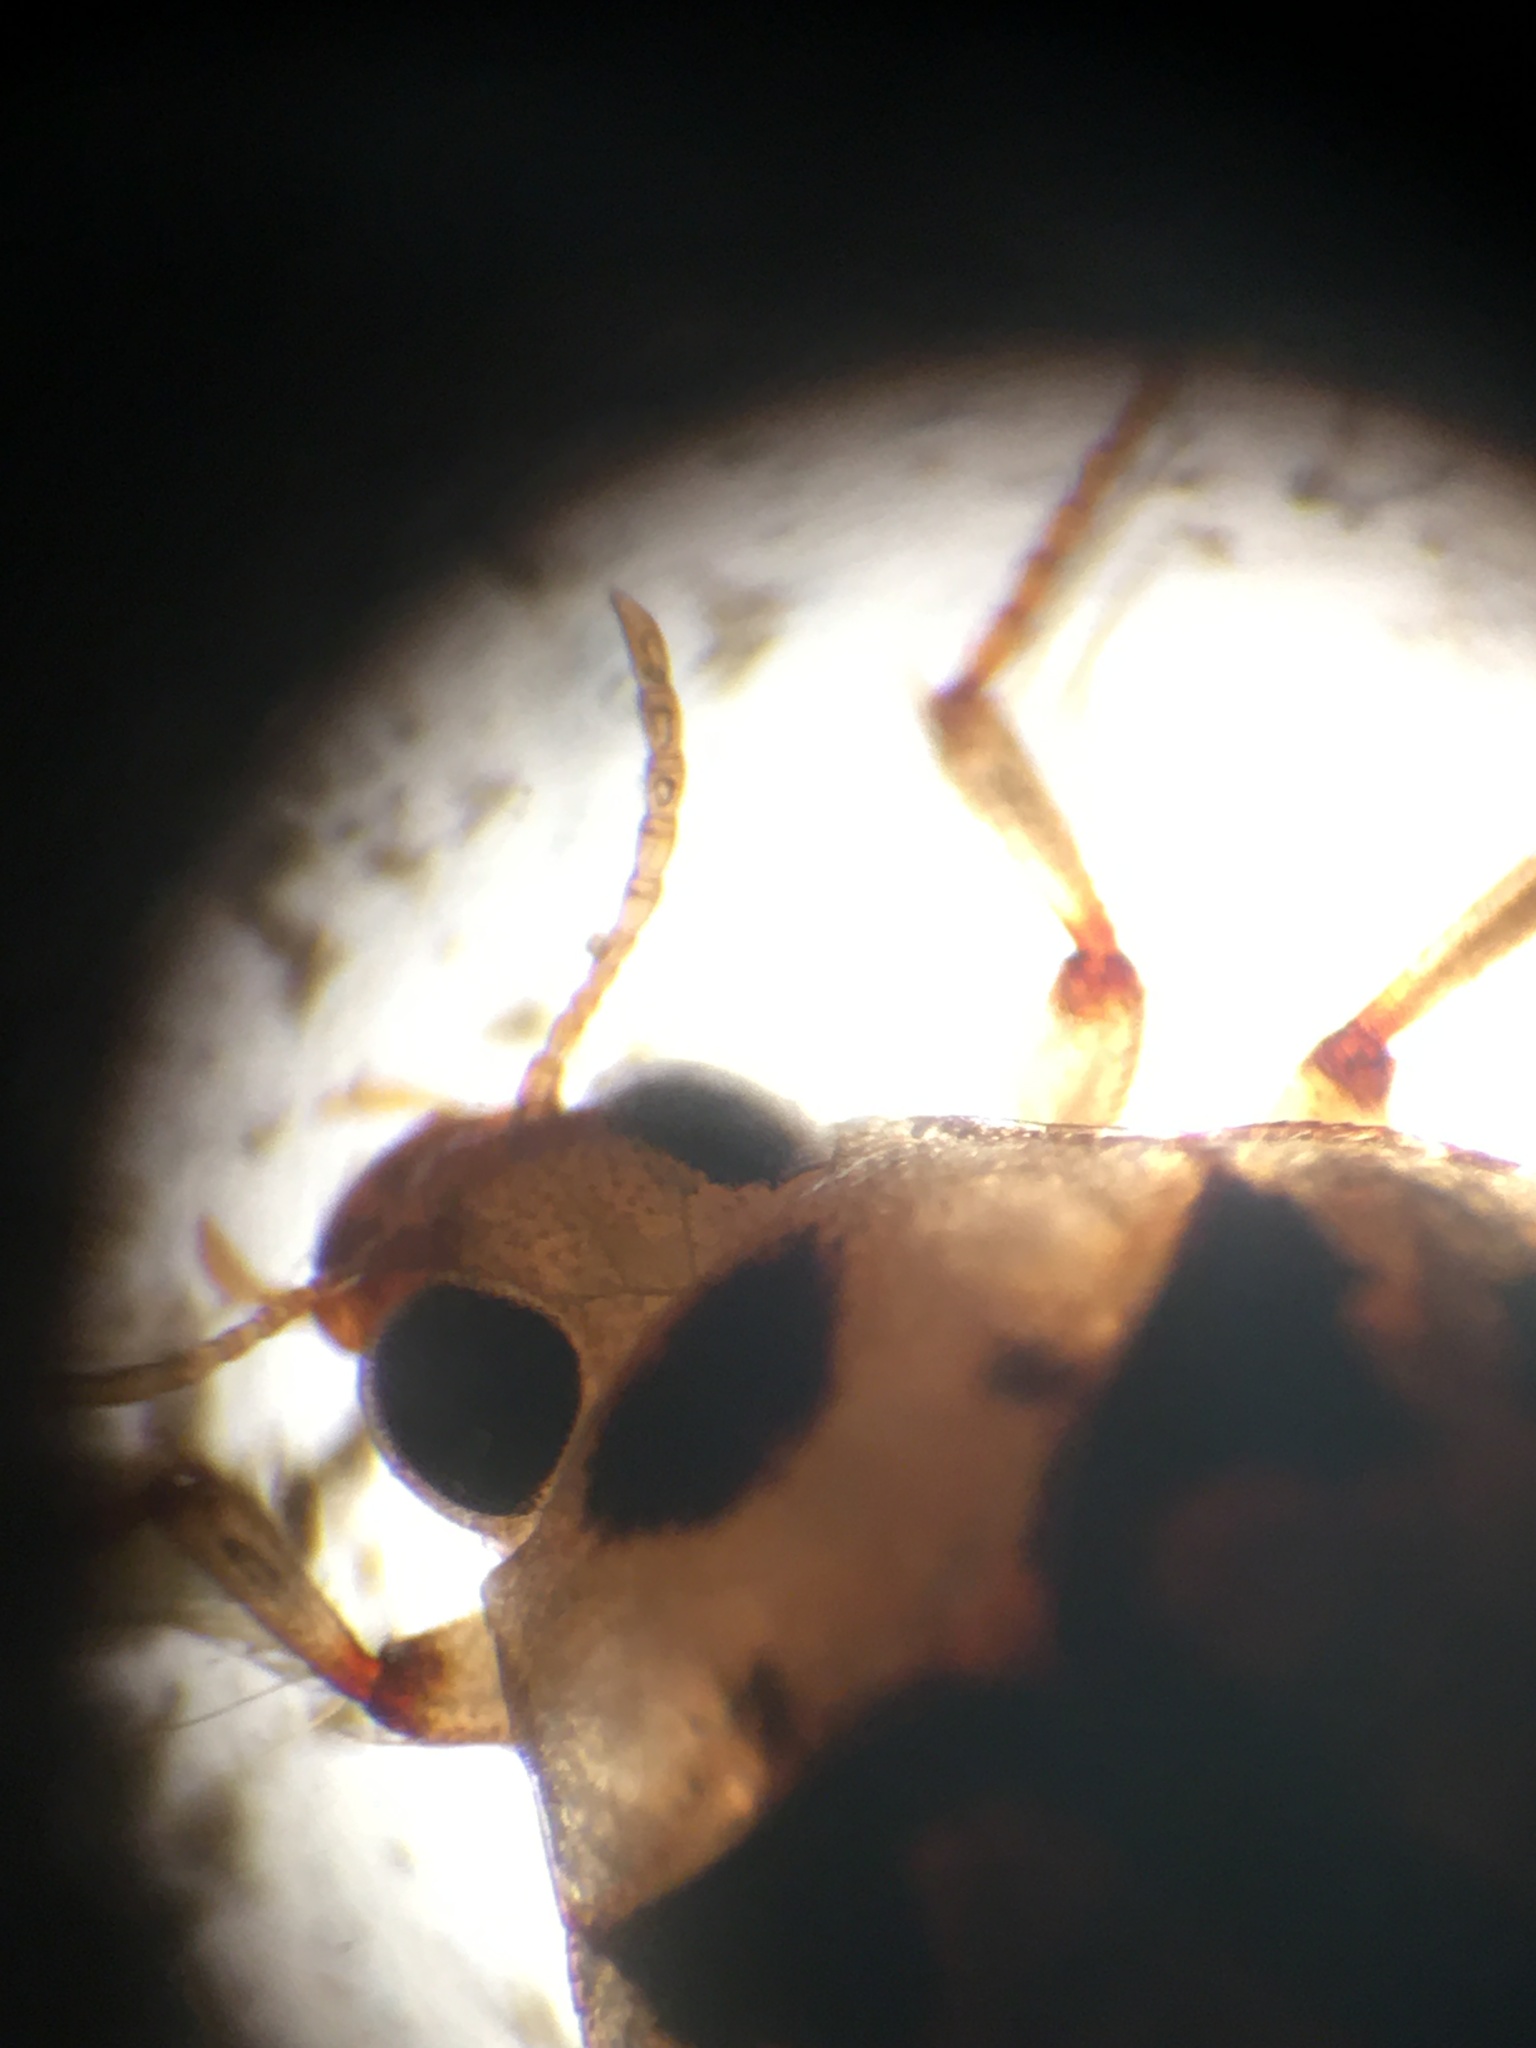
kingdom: Animalia
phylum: Arthropoda
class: Insecta
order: Coleoptera
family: Haliplidae
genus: Haliplus
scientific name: Haliplus
